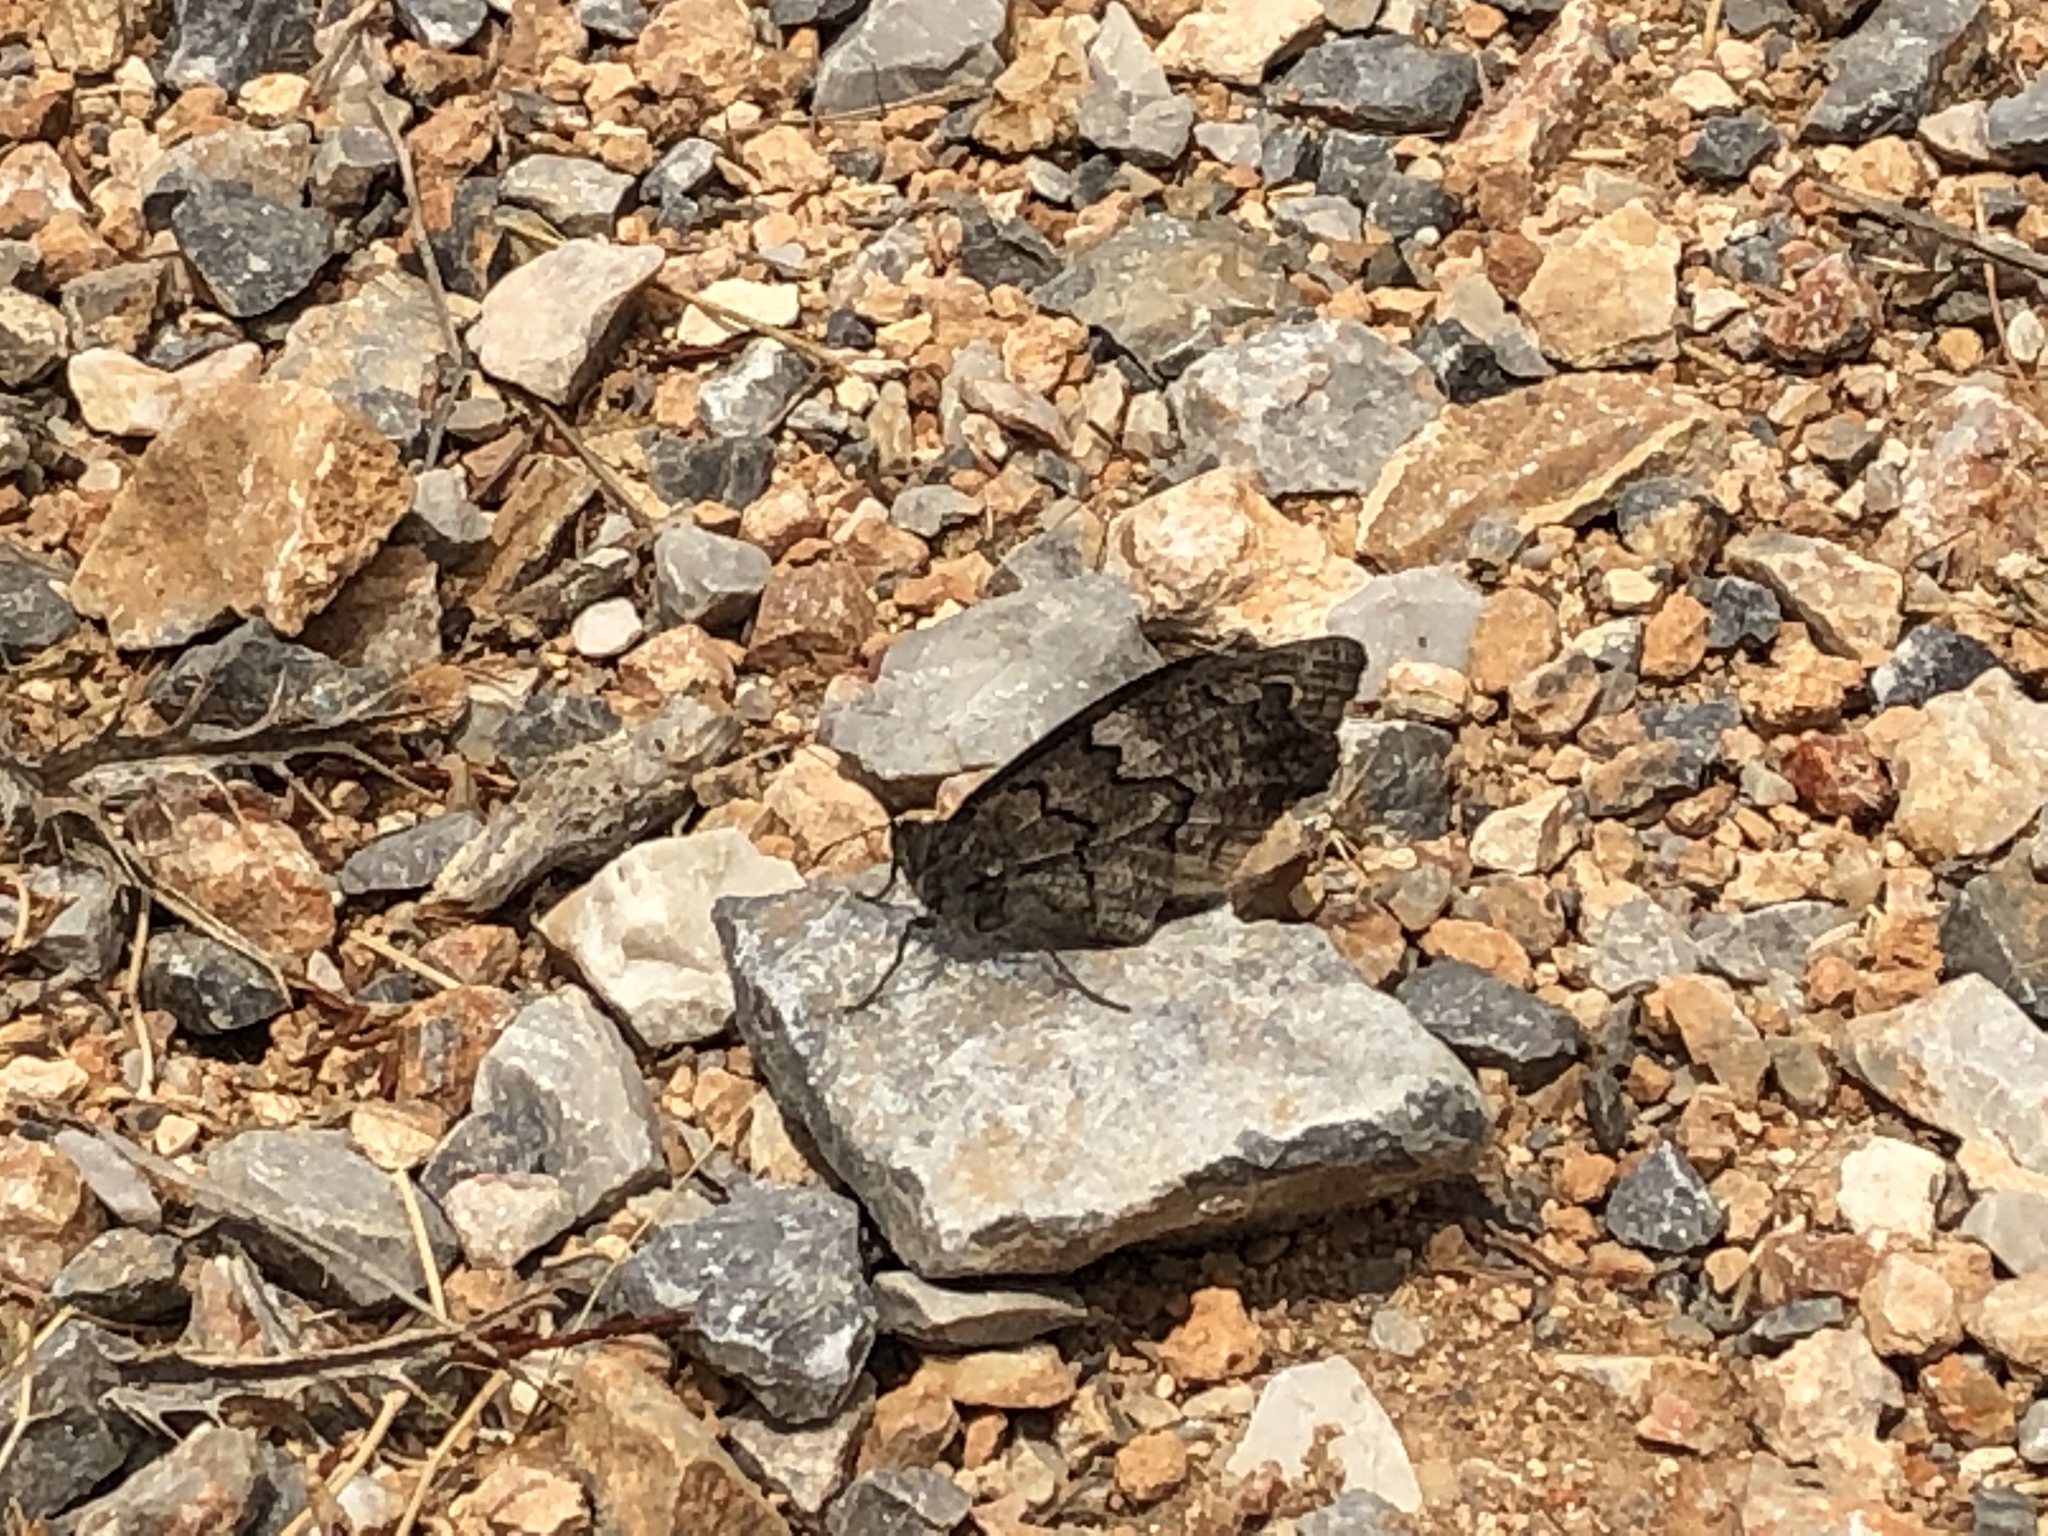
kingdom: Animalia
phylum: Arthropoda
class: Insecta
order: Lepidoptera
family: Nymphalidae
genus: Hipparchia
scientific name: Hipparchia fatua
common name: Freyer's grayling
